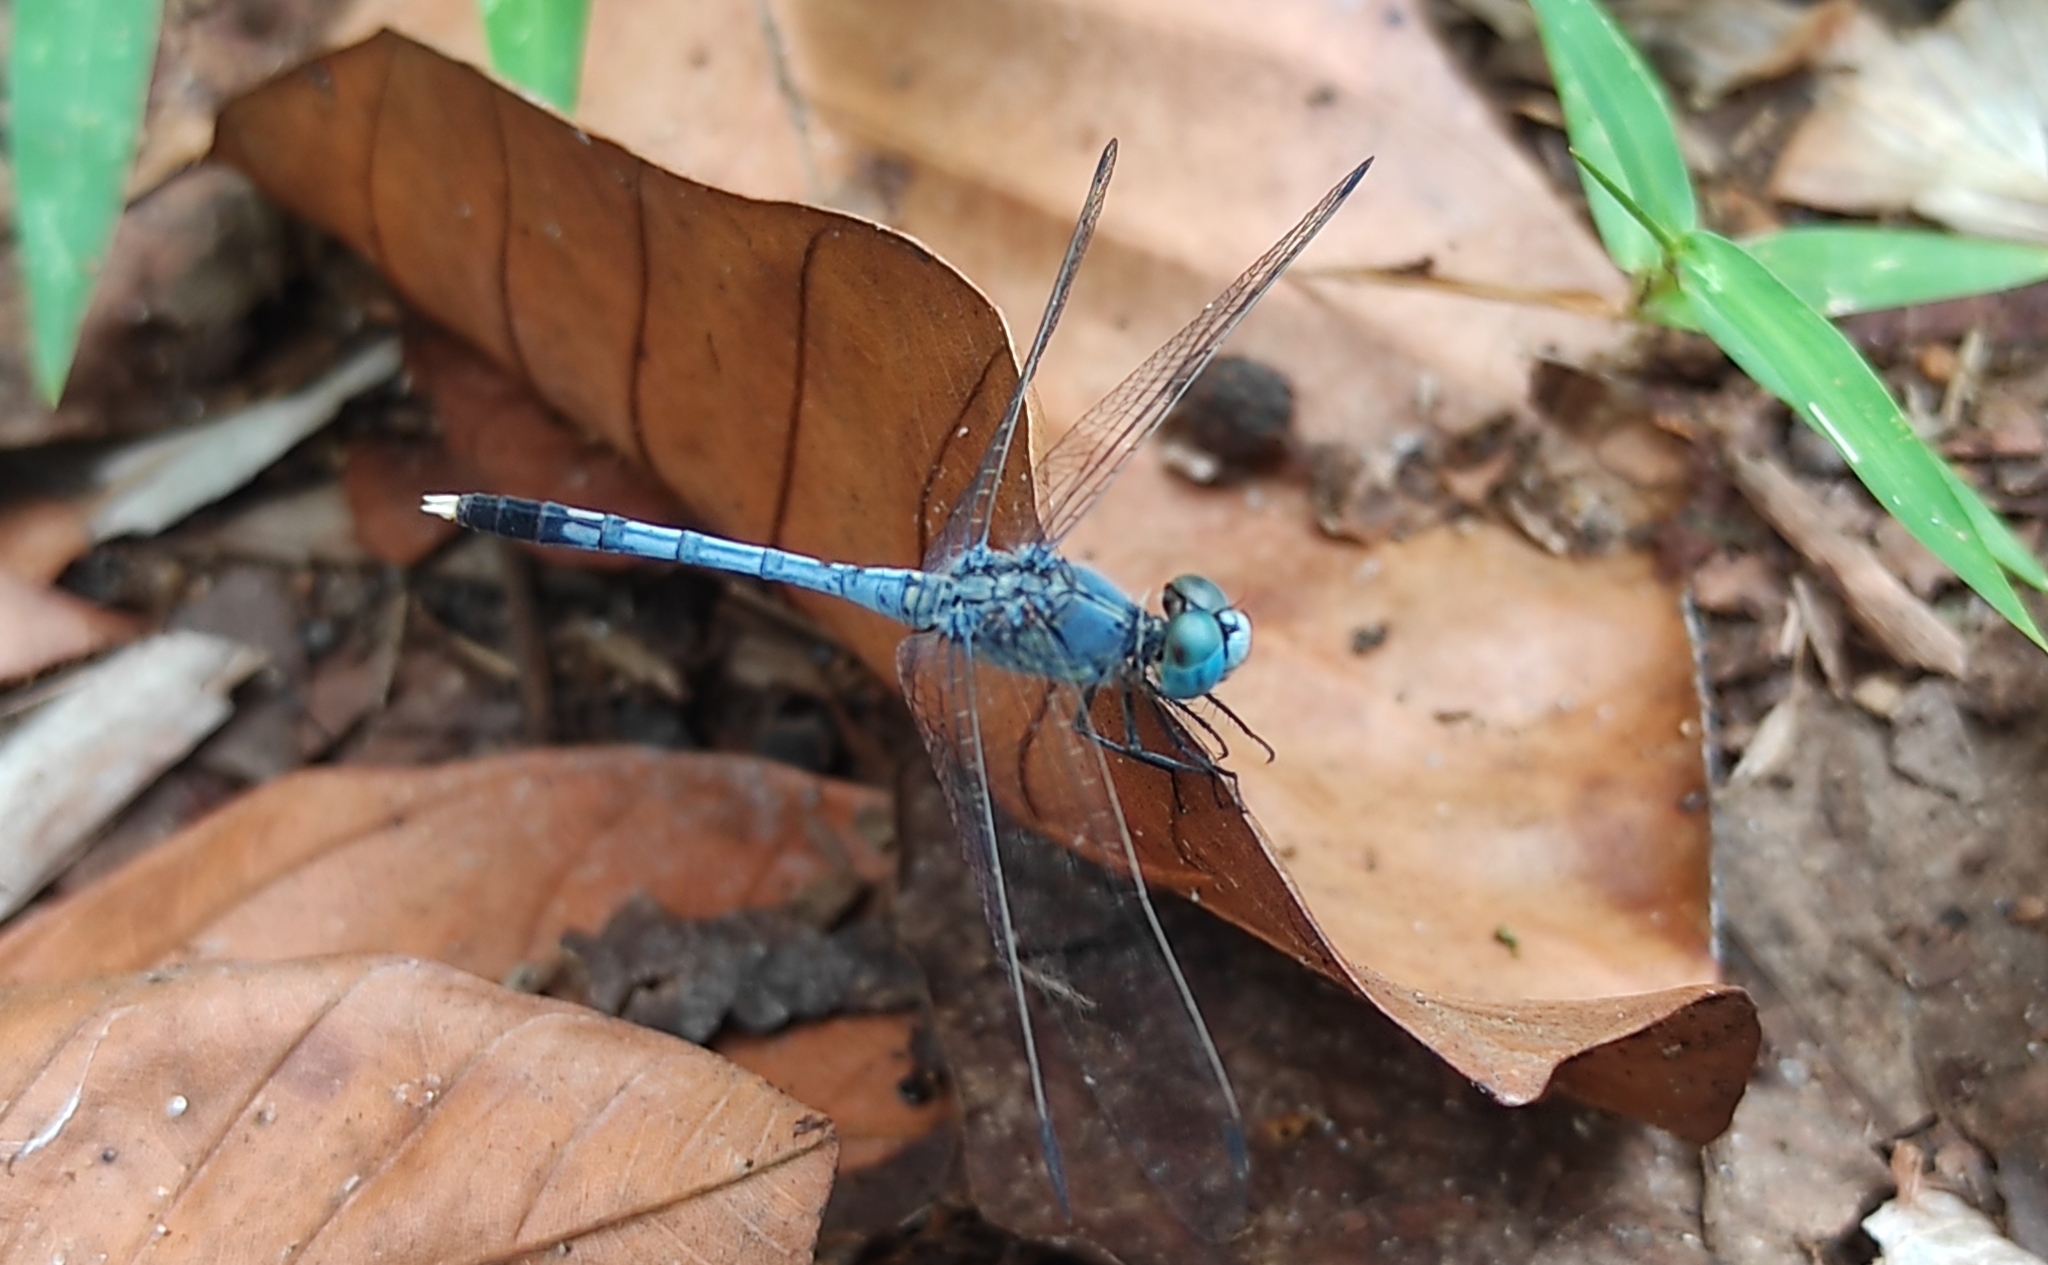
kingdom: Animalia
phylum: Arthropoda
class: Insecta
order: Odonata
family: Libellulidae
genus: Diplacodes
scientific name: Diplacodes trivialis
